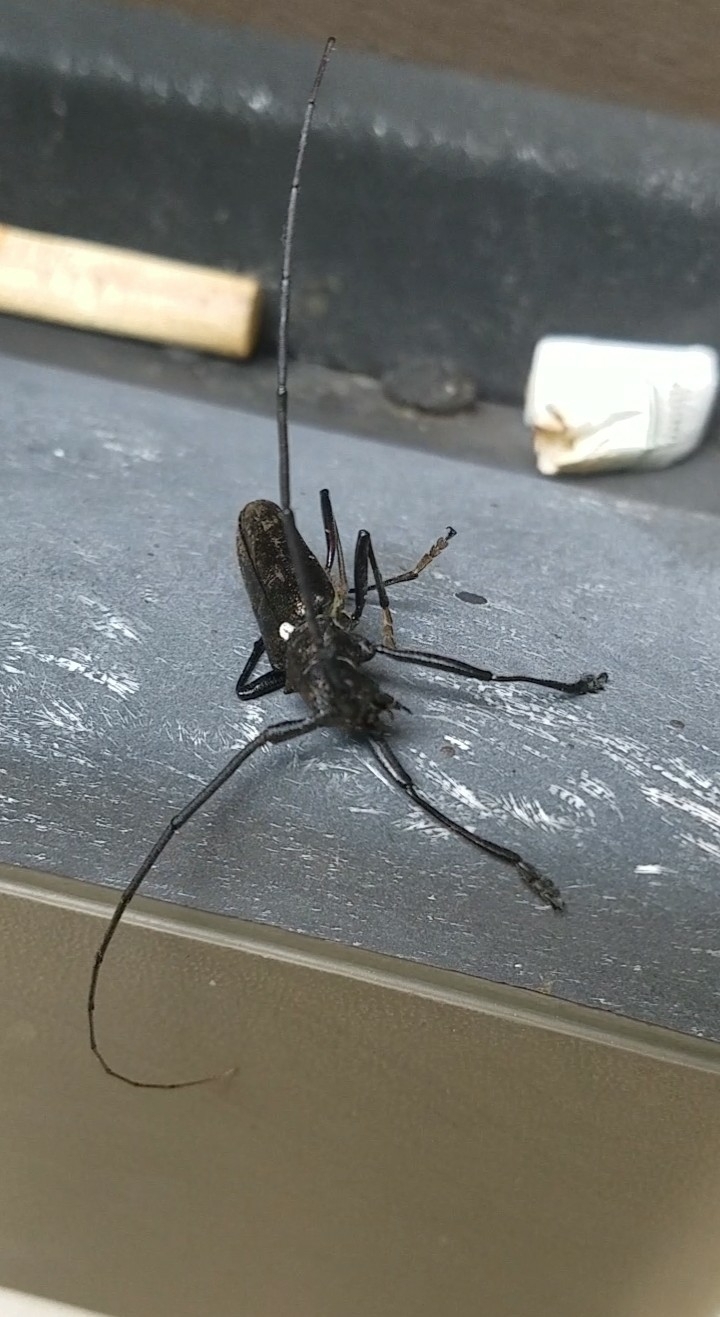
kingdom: Animalia
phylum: Arthropoda
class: Insecta
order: Coleoptera
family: Cerambycidae
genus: Monochamus
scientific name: Monochamus scutellatus
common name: White-spotted sawyer beetle
